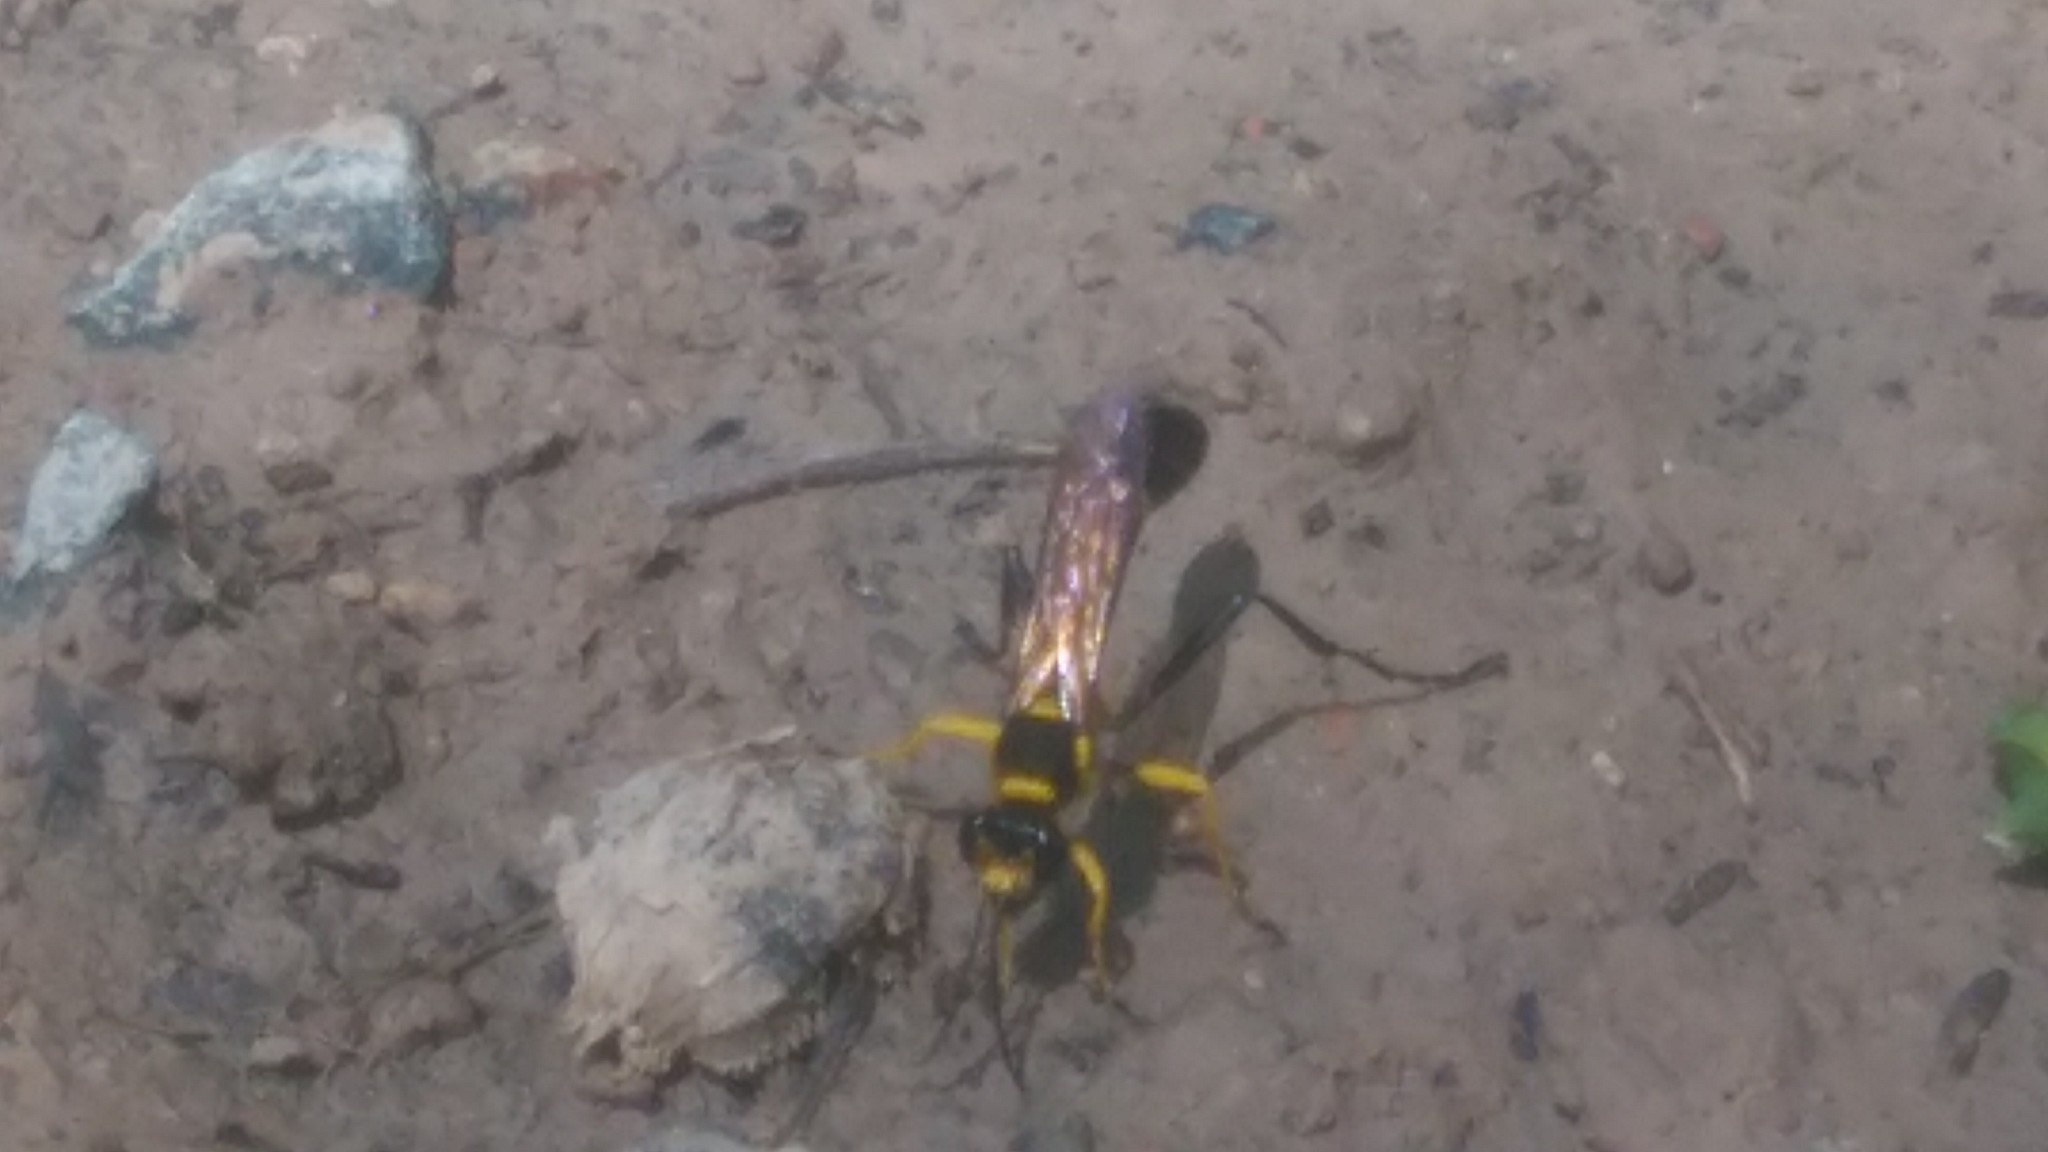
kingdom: Animalia
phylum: Arthropoda
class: Insecta
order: Hymenoptera
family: Sphecidae
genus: Sceliphron
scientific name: Sceliphron fistularium
